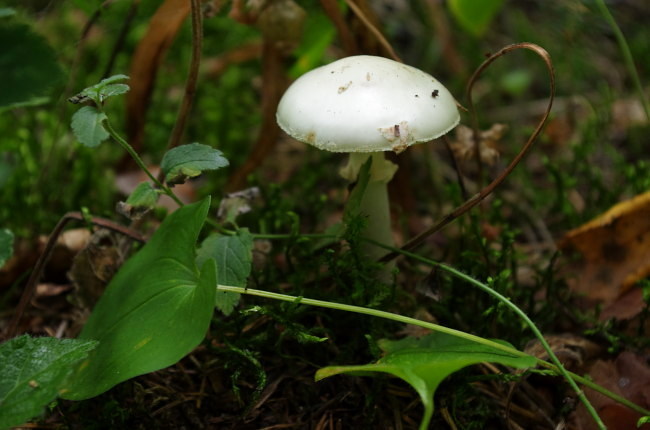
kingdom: Fungi
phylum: Basidiomycota
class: Agaricomycetes
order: Agaricales
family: Amanitaceae
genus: Amanita
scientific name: Amanita citrina
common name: False death-cap
